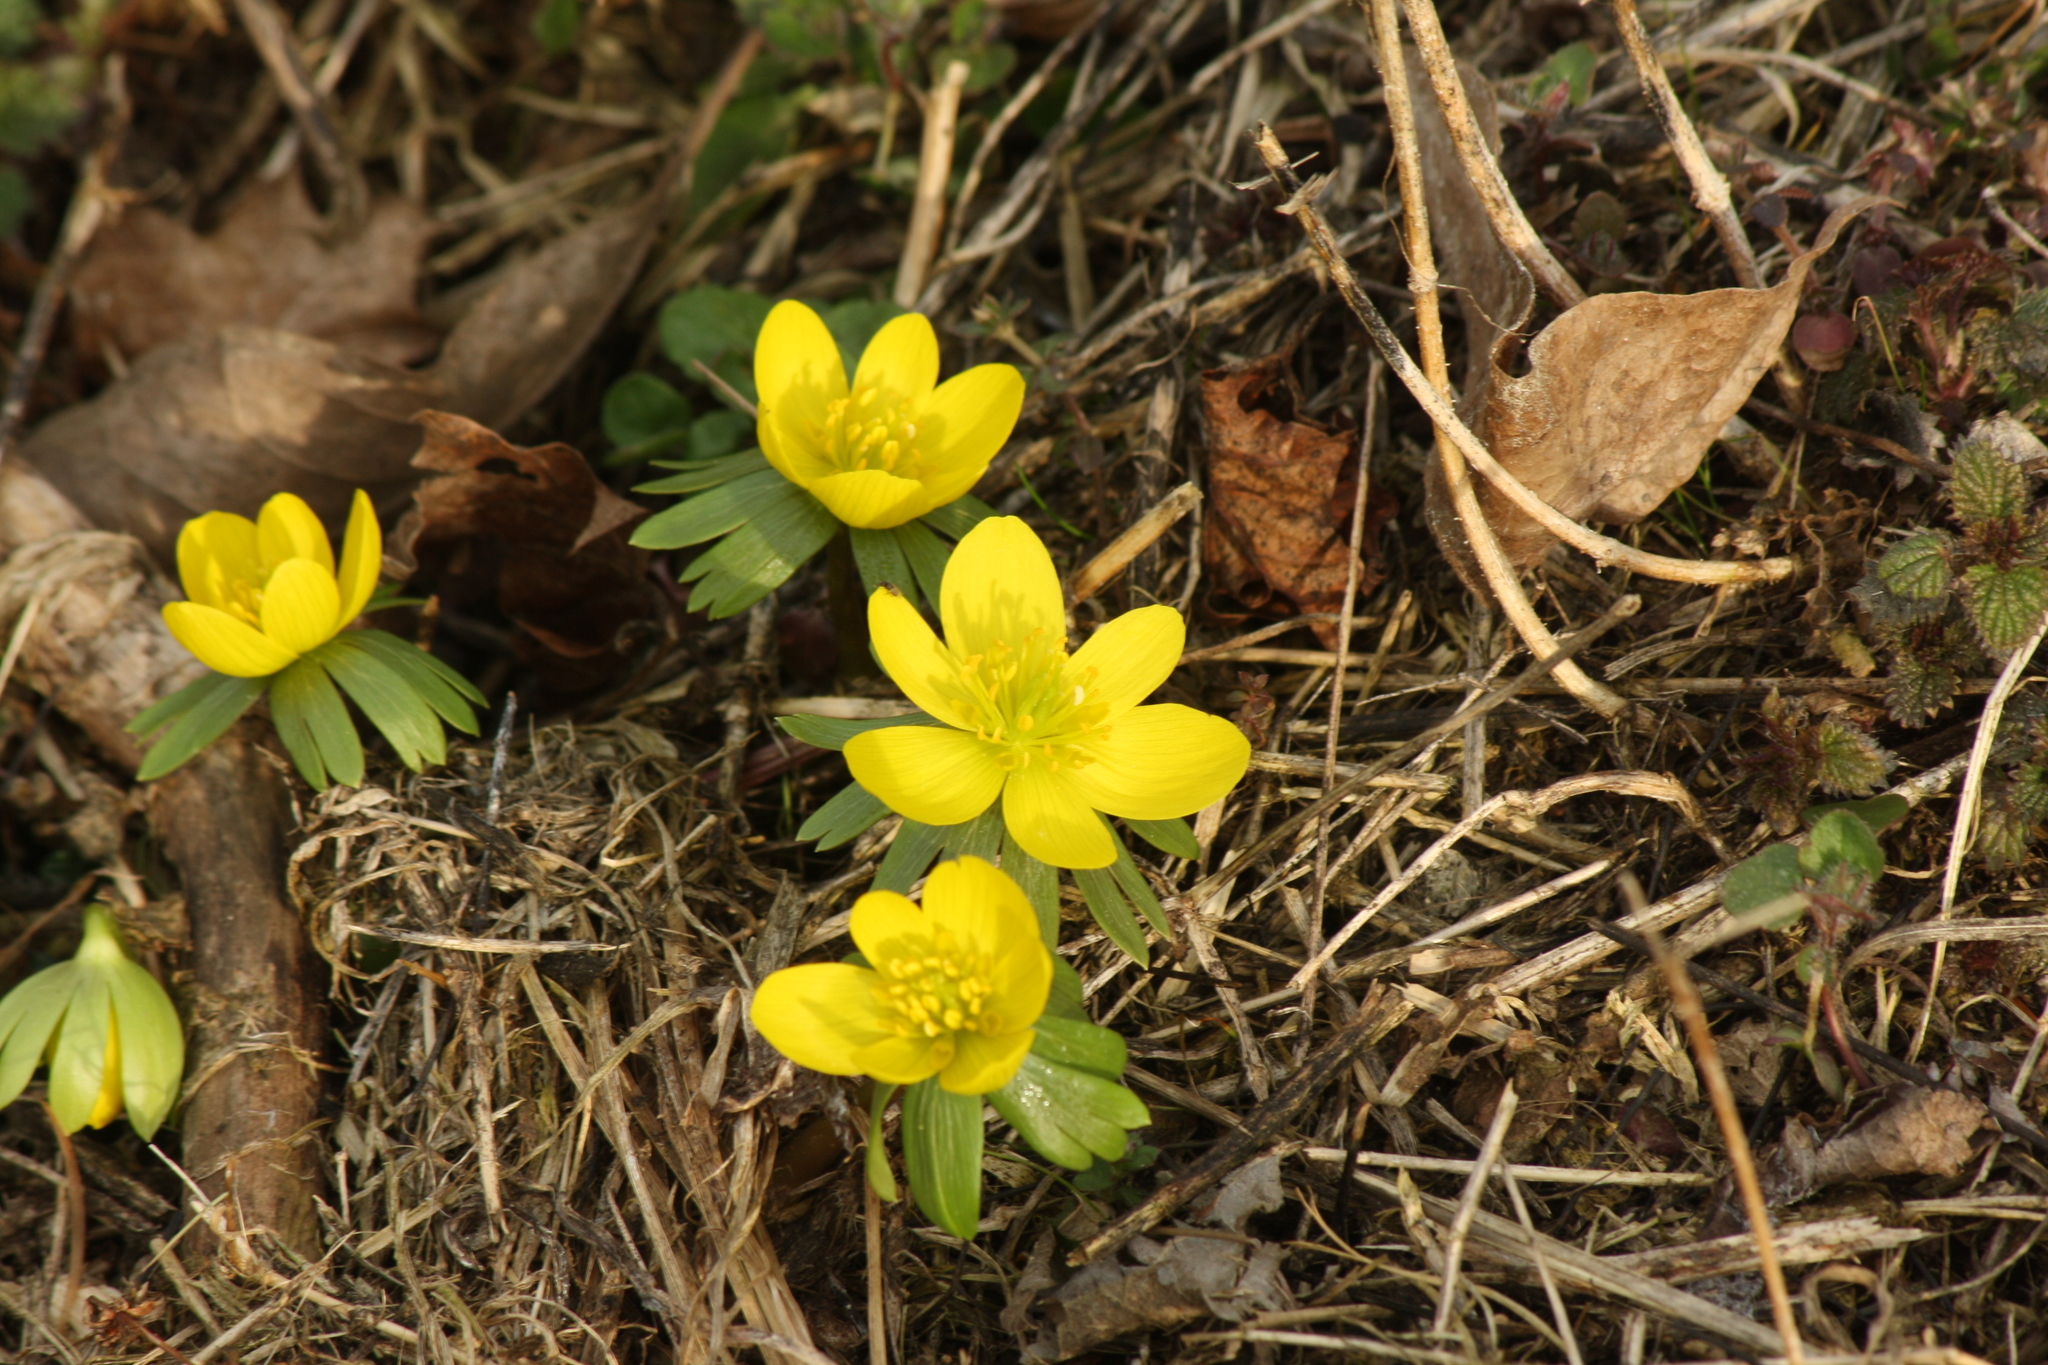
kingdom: Plantae
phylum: Tracheophyta
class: Magnoliopsida
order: Ranunculales
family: Ranunculaceae
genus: Eranthis
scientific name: Eranthis hyemalis
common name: Winter aconite
